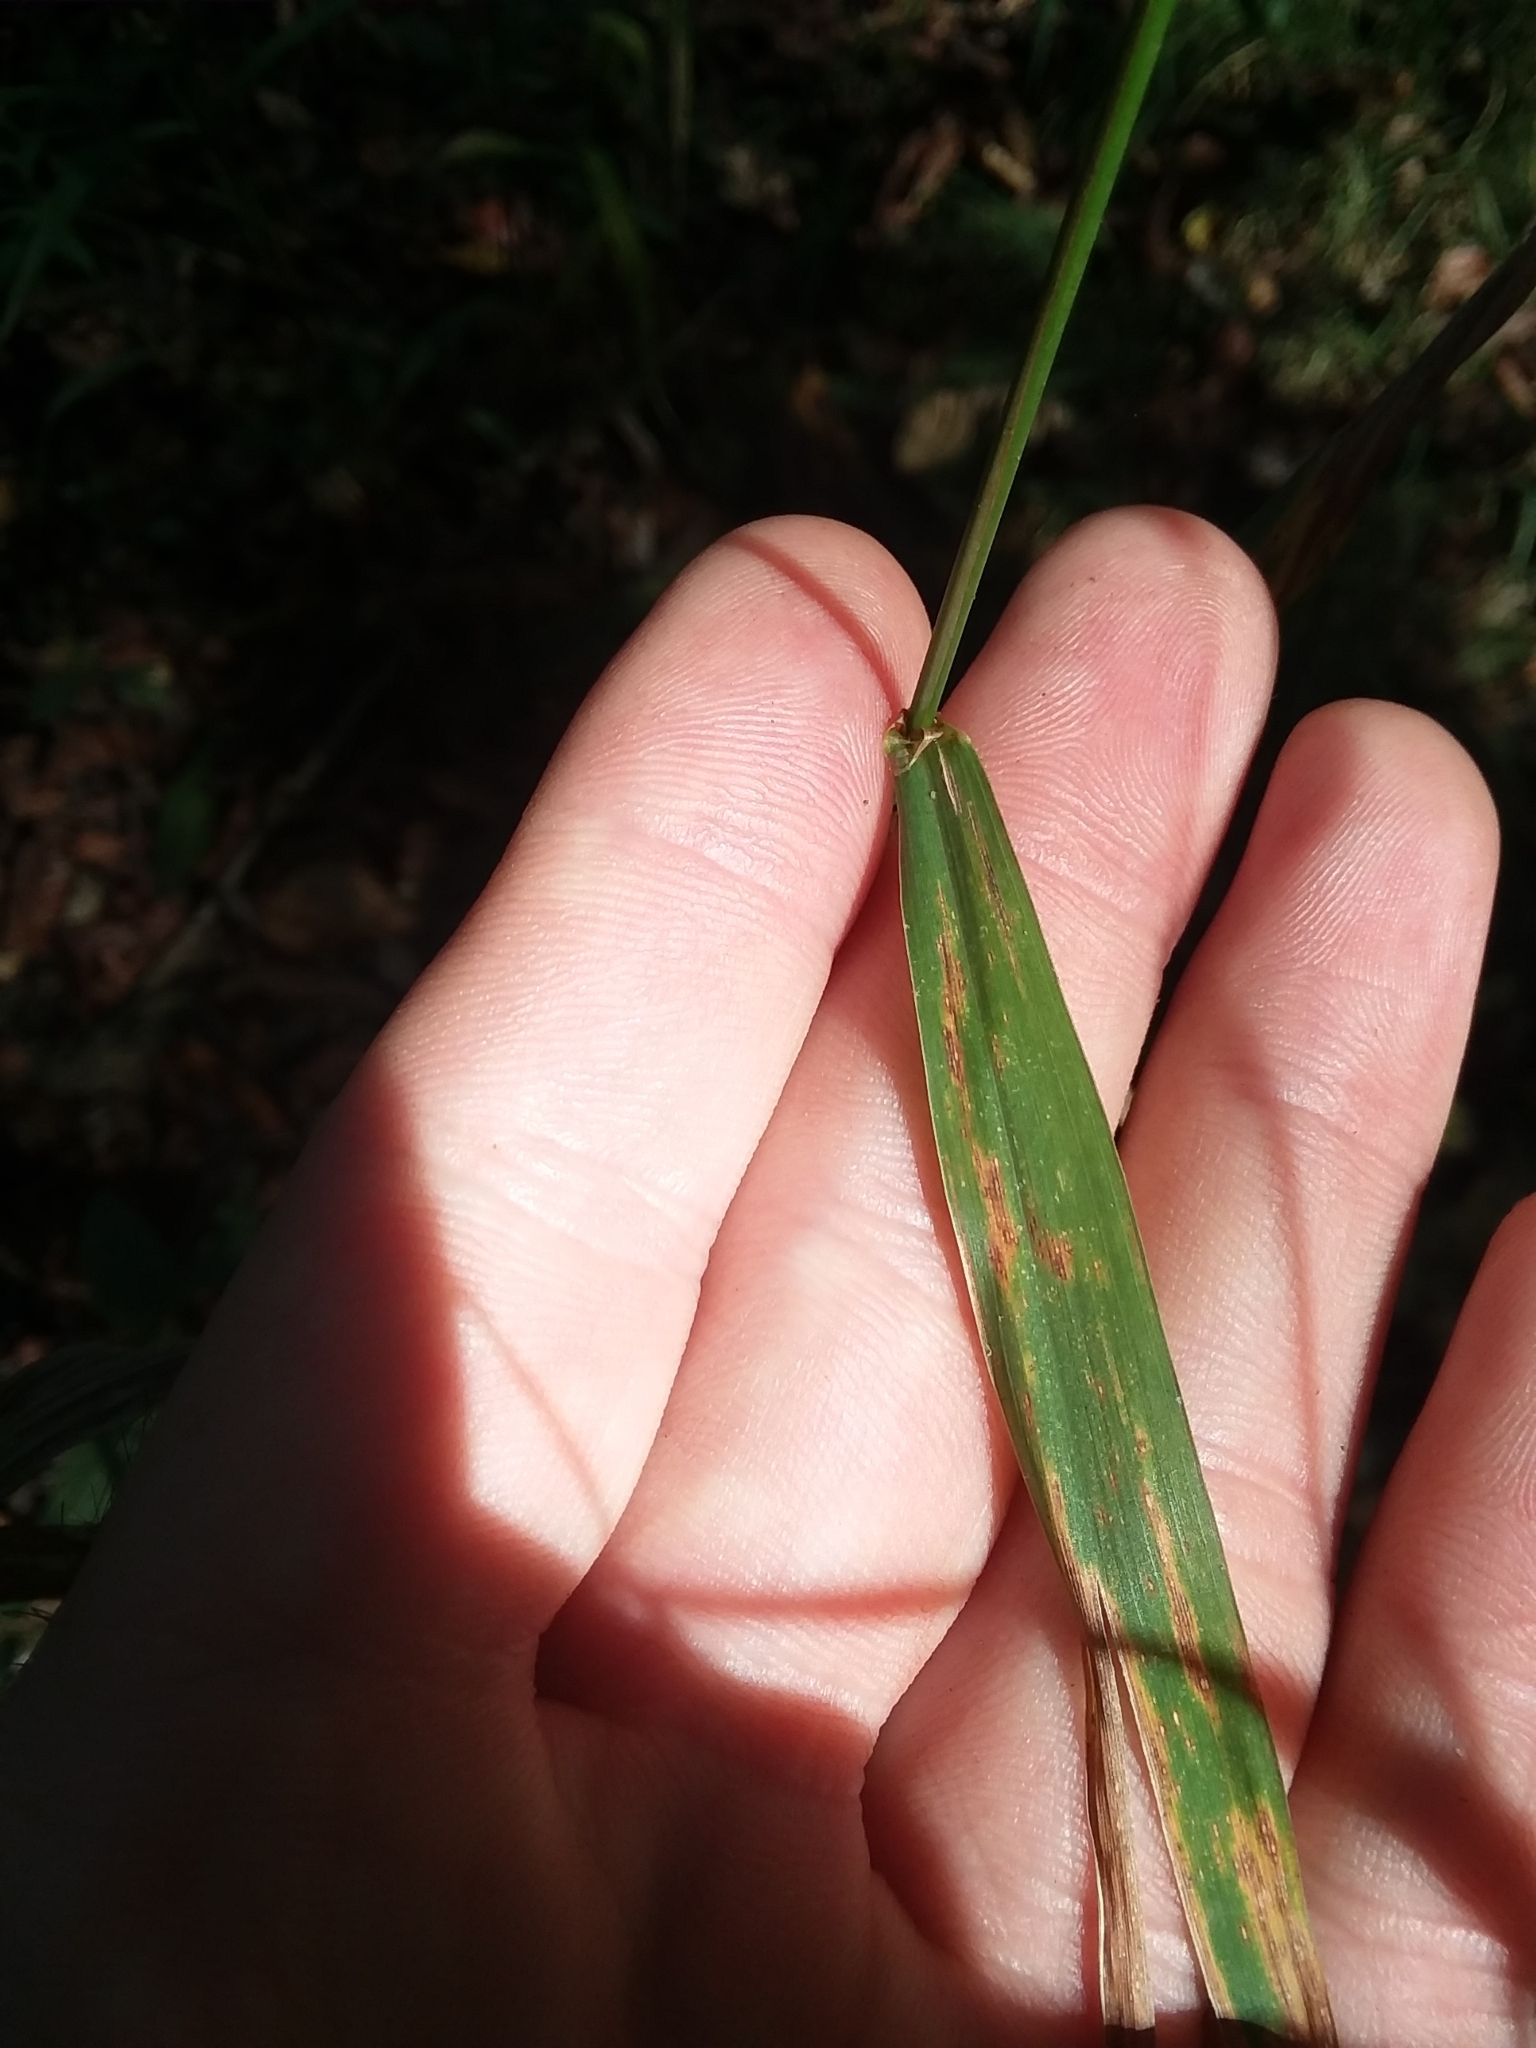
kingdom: Plantae
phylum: Tracheophyta
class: Liliopsida
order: Poales
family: Poaceae
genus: Cinna
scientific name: Cinna arundinacea
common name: Stout woodreed
